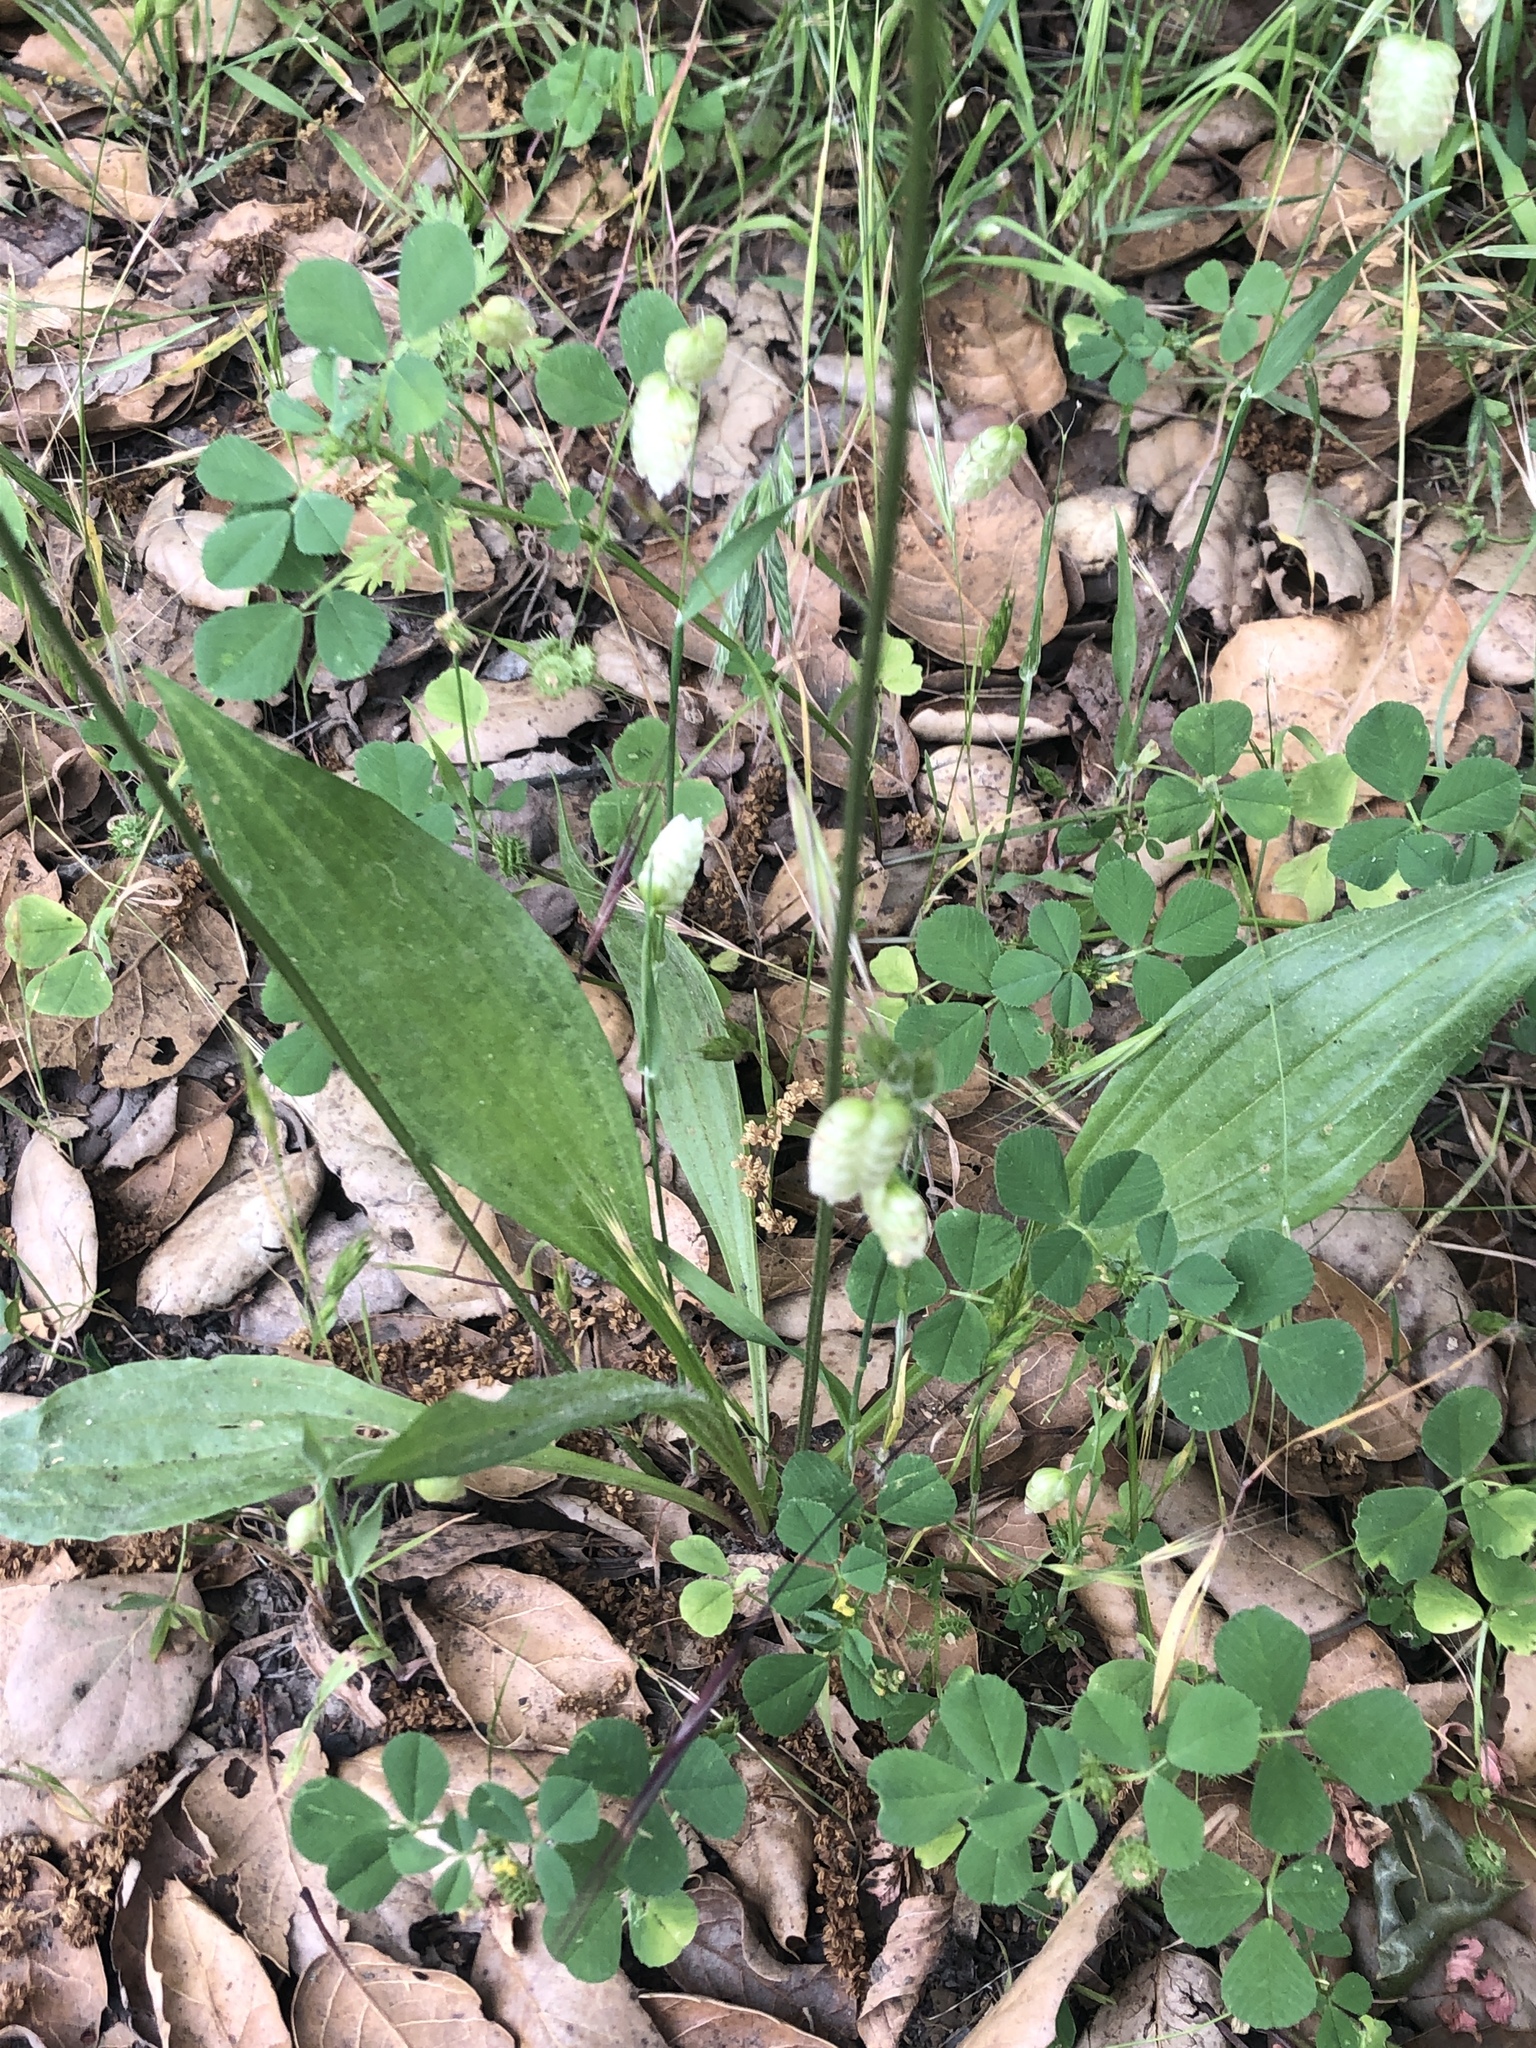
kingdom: Plantae
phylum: Tracheophyta
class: Magnoliopsida
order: Lamiales
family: Plantaginaceae
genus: Plantago
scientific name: Plantago lanceolata
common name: Ribwort plantain
